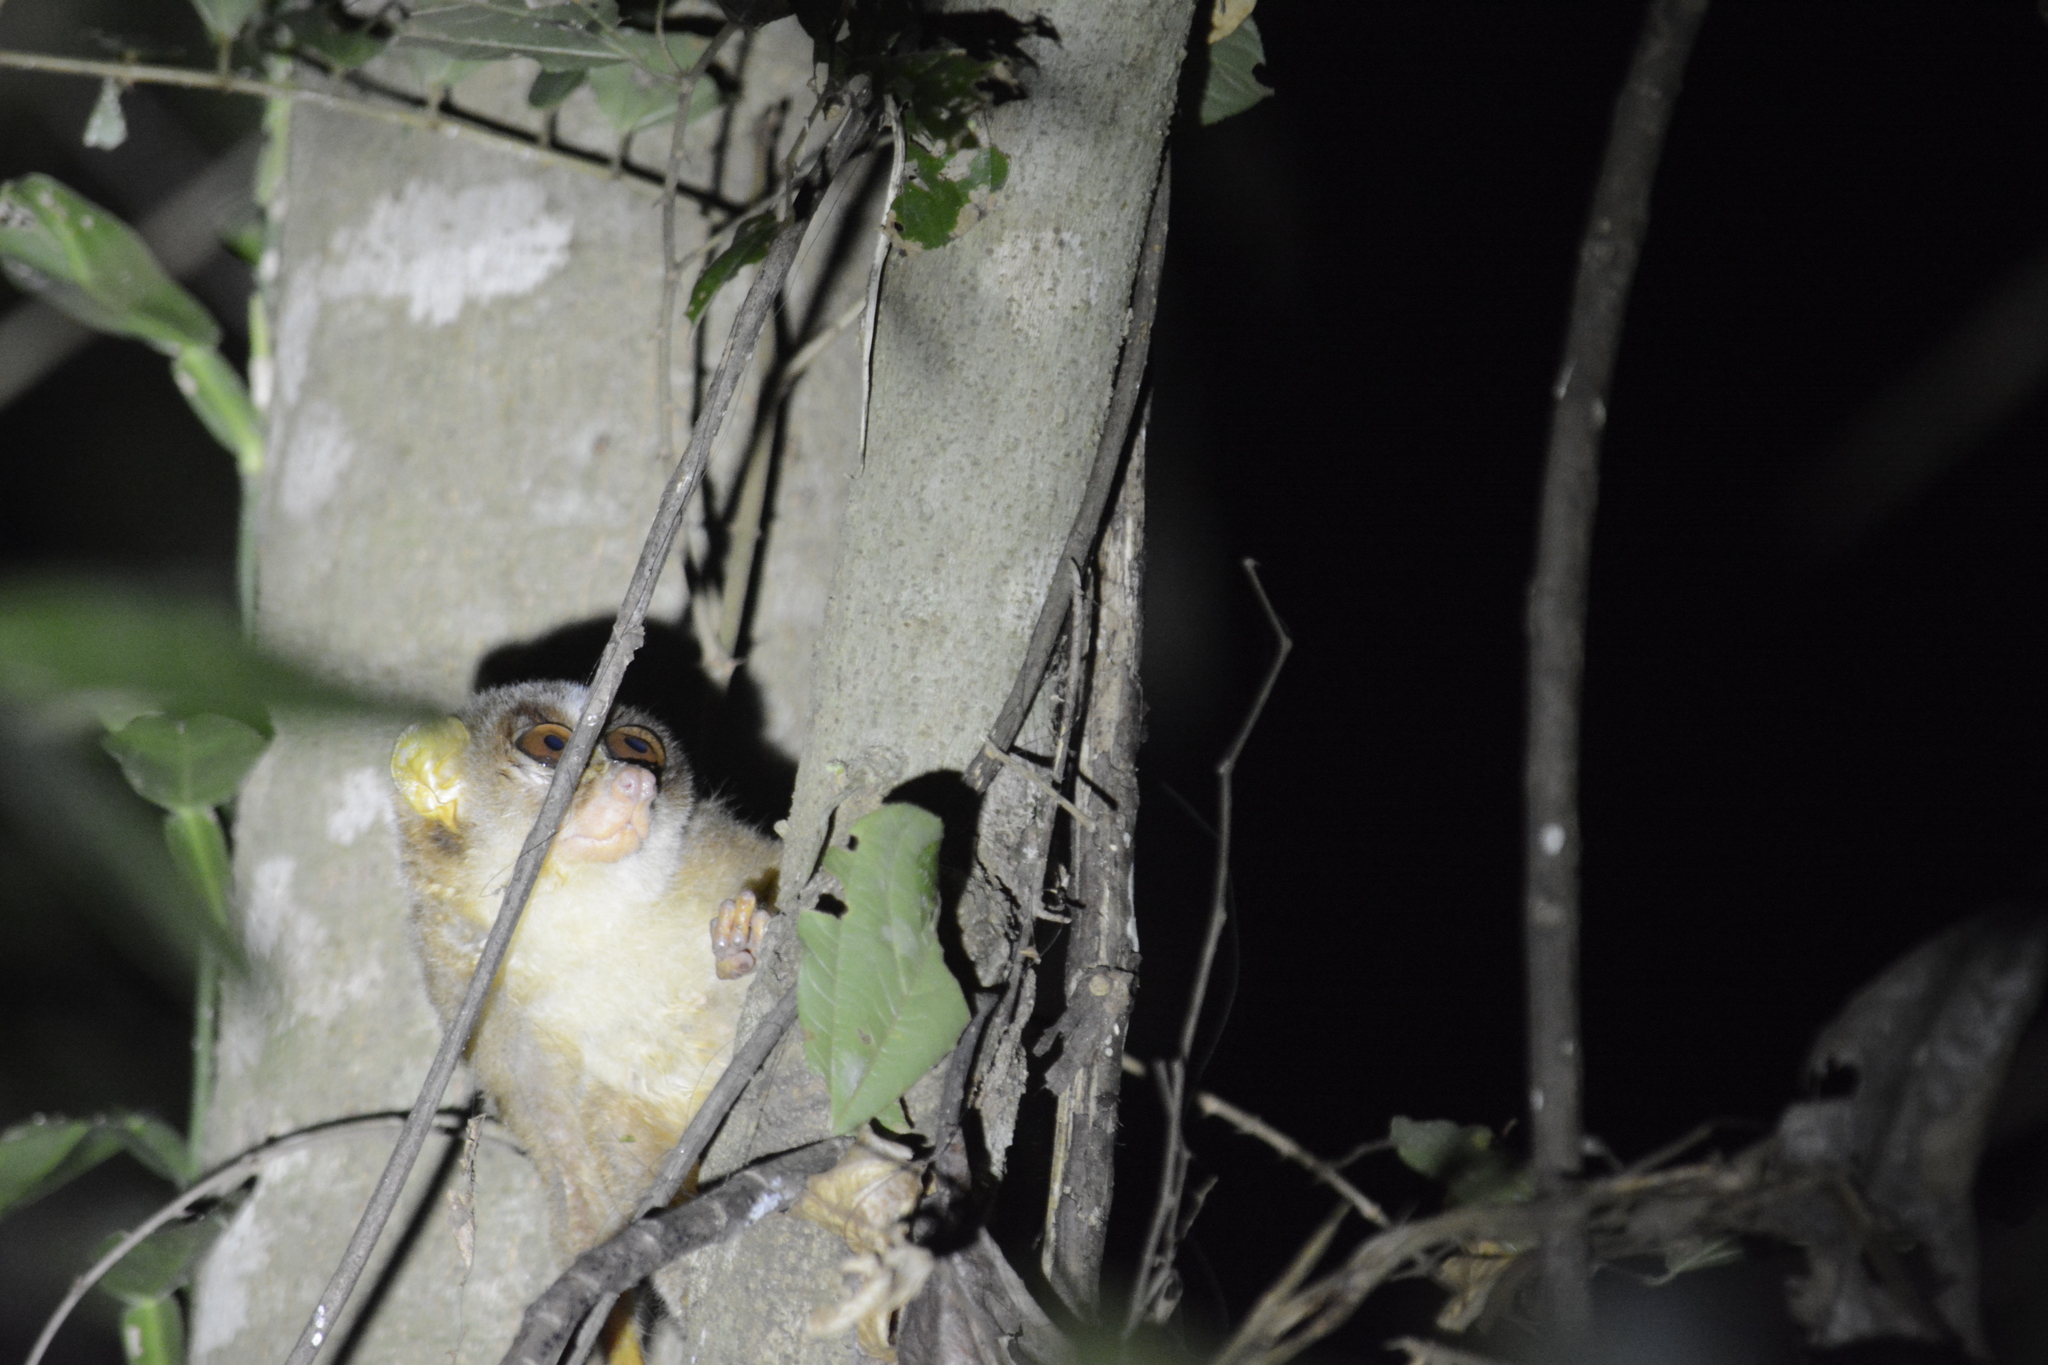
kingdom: Animalia
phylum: Chordata
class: Mammalia
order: Primates
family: Lorisidae
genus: Loris
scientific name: Loris lydekkerianus
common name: Gray slender loris
